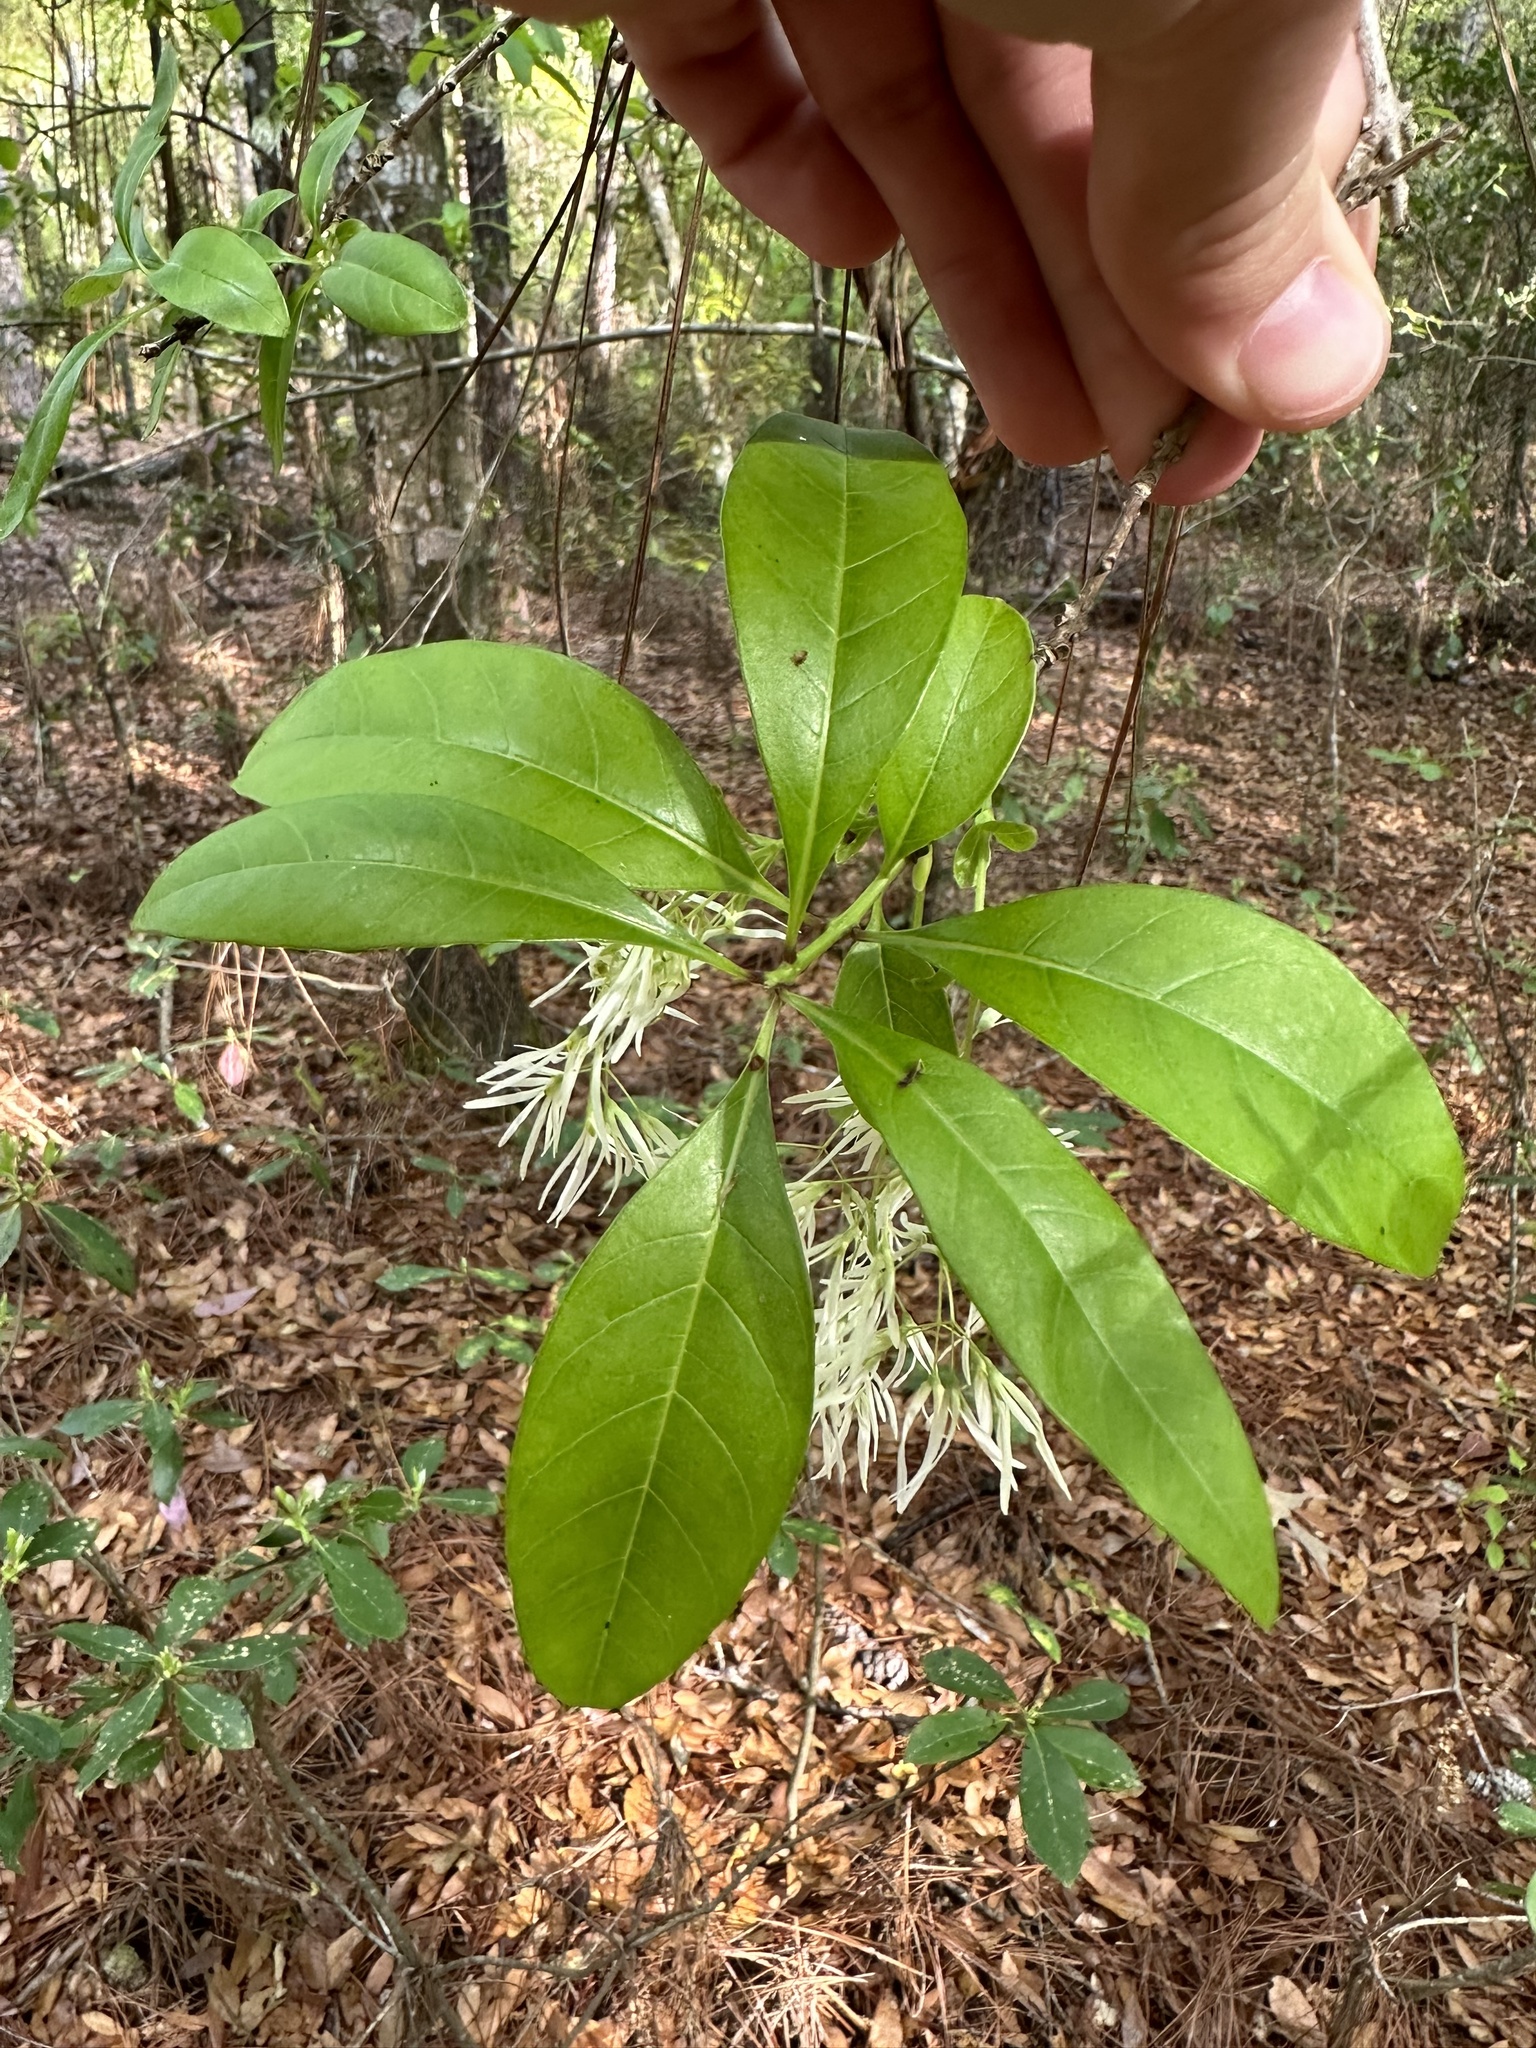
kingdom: Plantae
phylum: Tracheophyta
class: Magnoliopsida
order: Lamiales
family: Oleaceae
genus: Chionanthus
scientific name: Chionanthus virginicus
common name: American fringetree
